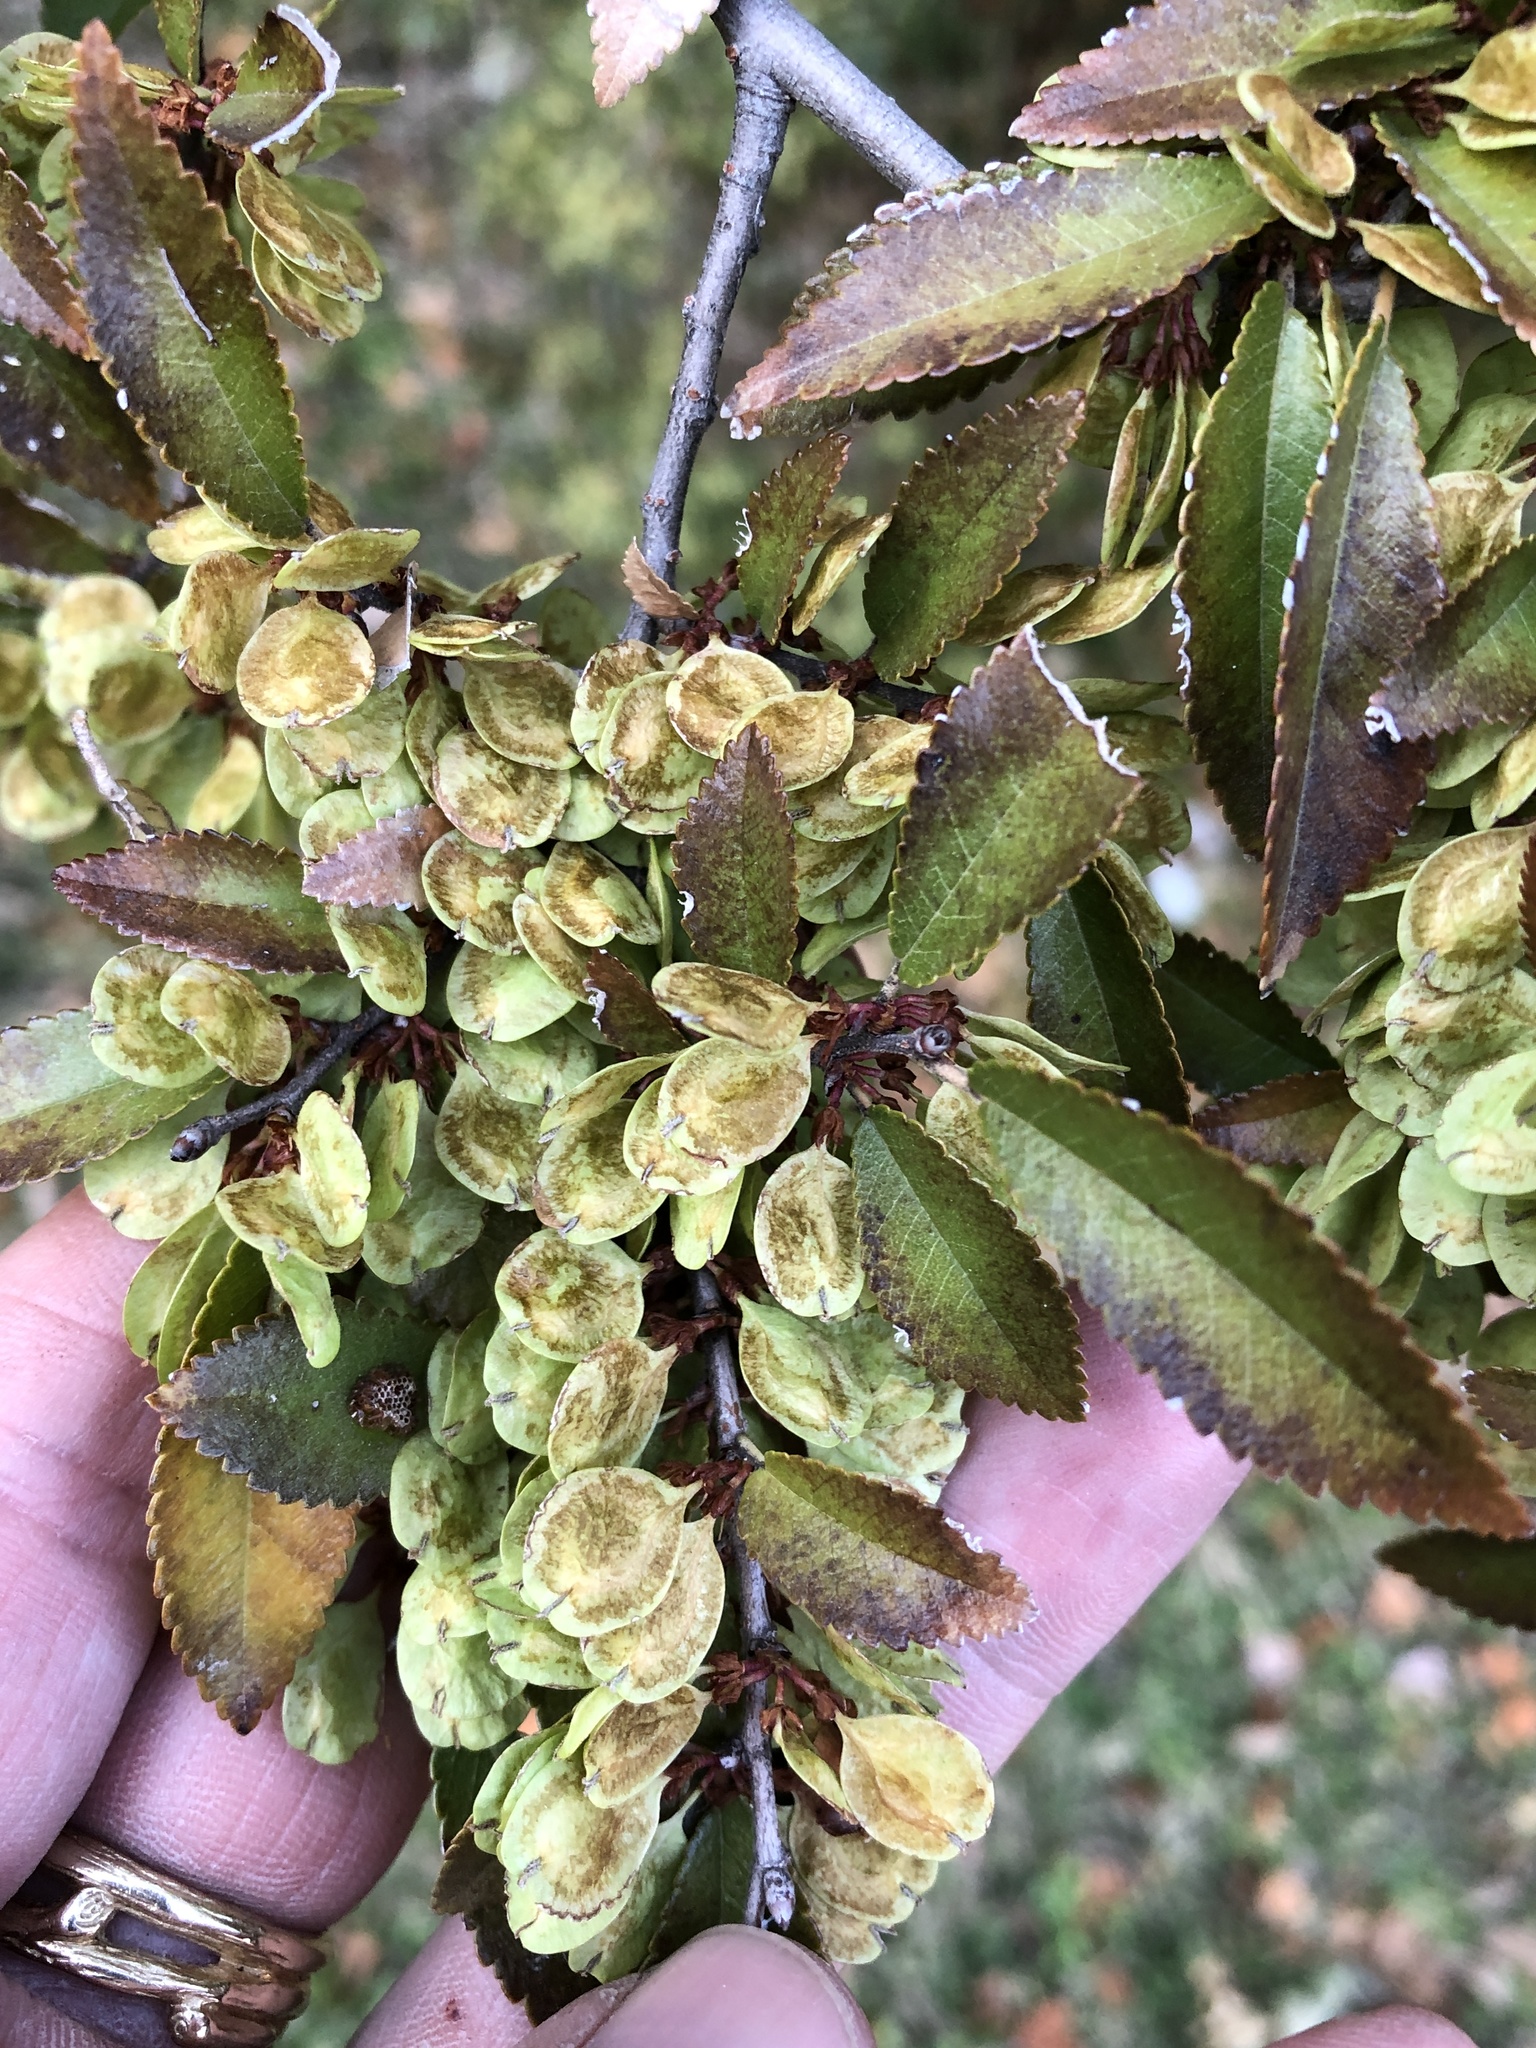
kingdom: Plantae
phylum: Tracheophyta
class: Magnoliopsida
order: Rosales
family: Ulmaceae
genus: Ulmus
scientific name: Ulmus parvifolia
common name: Chinese elm
